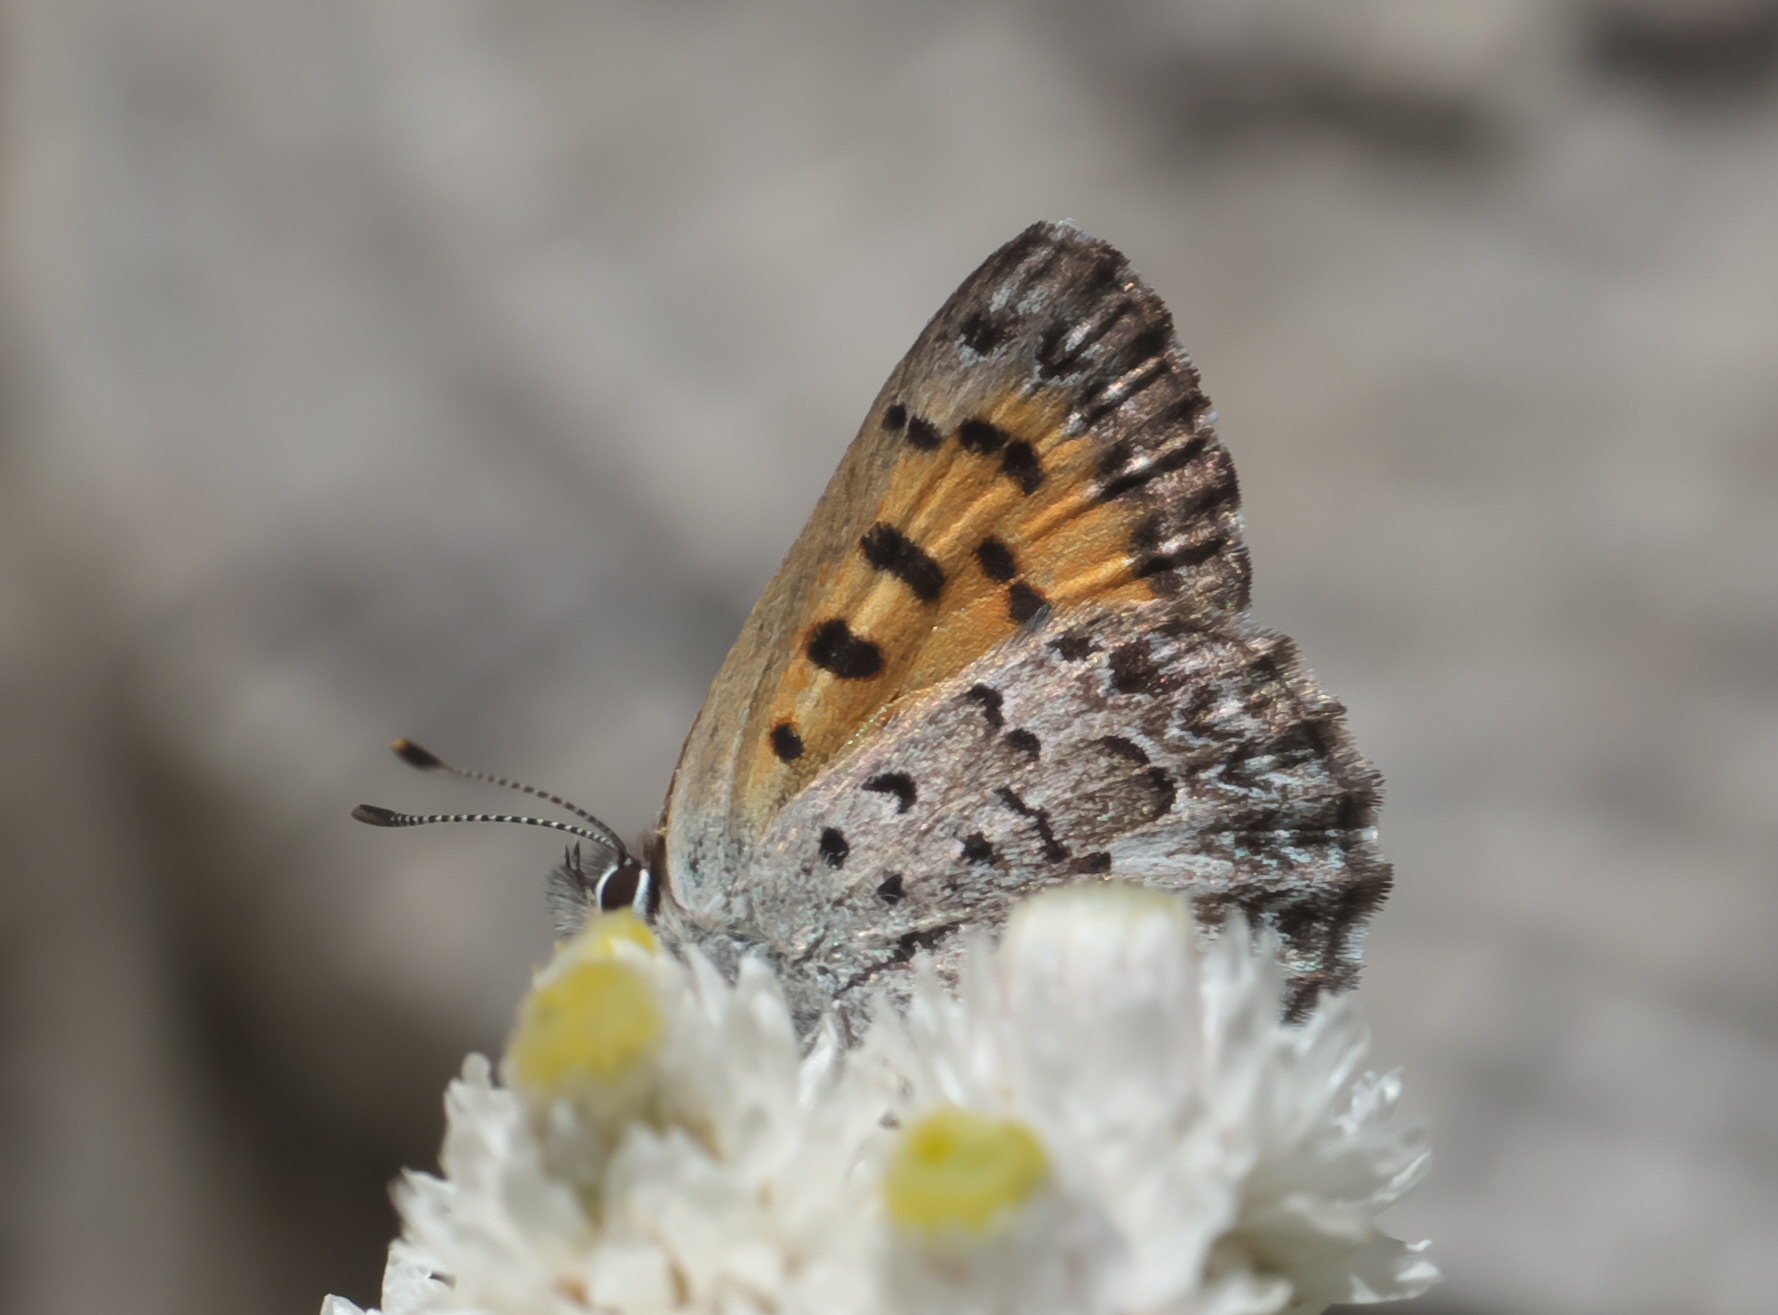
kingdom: Animalia
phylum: Arthropoda
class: Insecta
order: Lepidoptera
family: Lycaenidae
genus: Tharsalea
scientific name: Tharsalea mariposa
